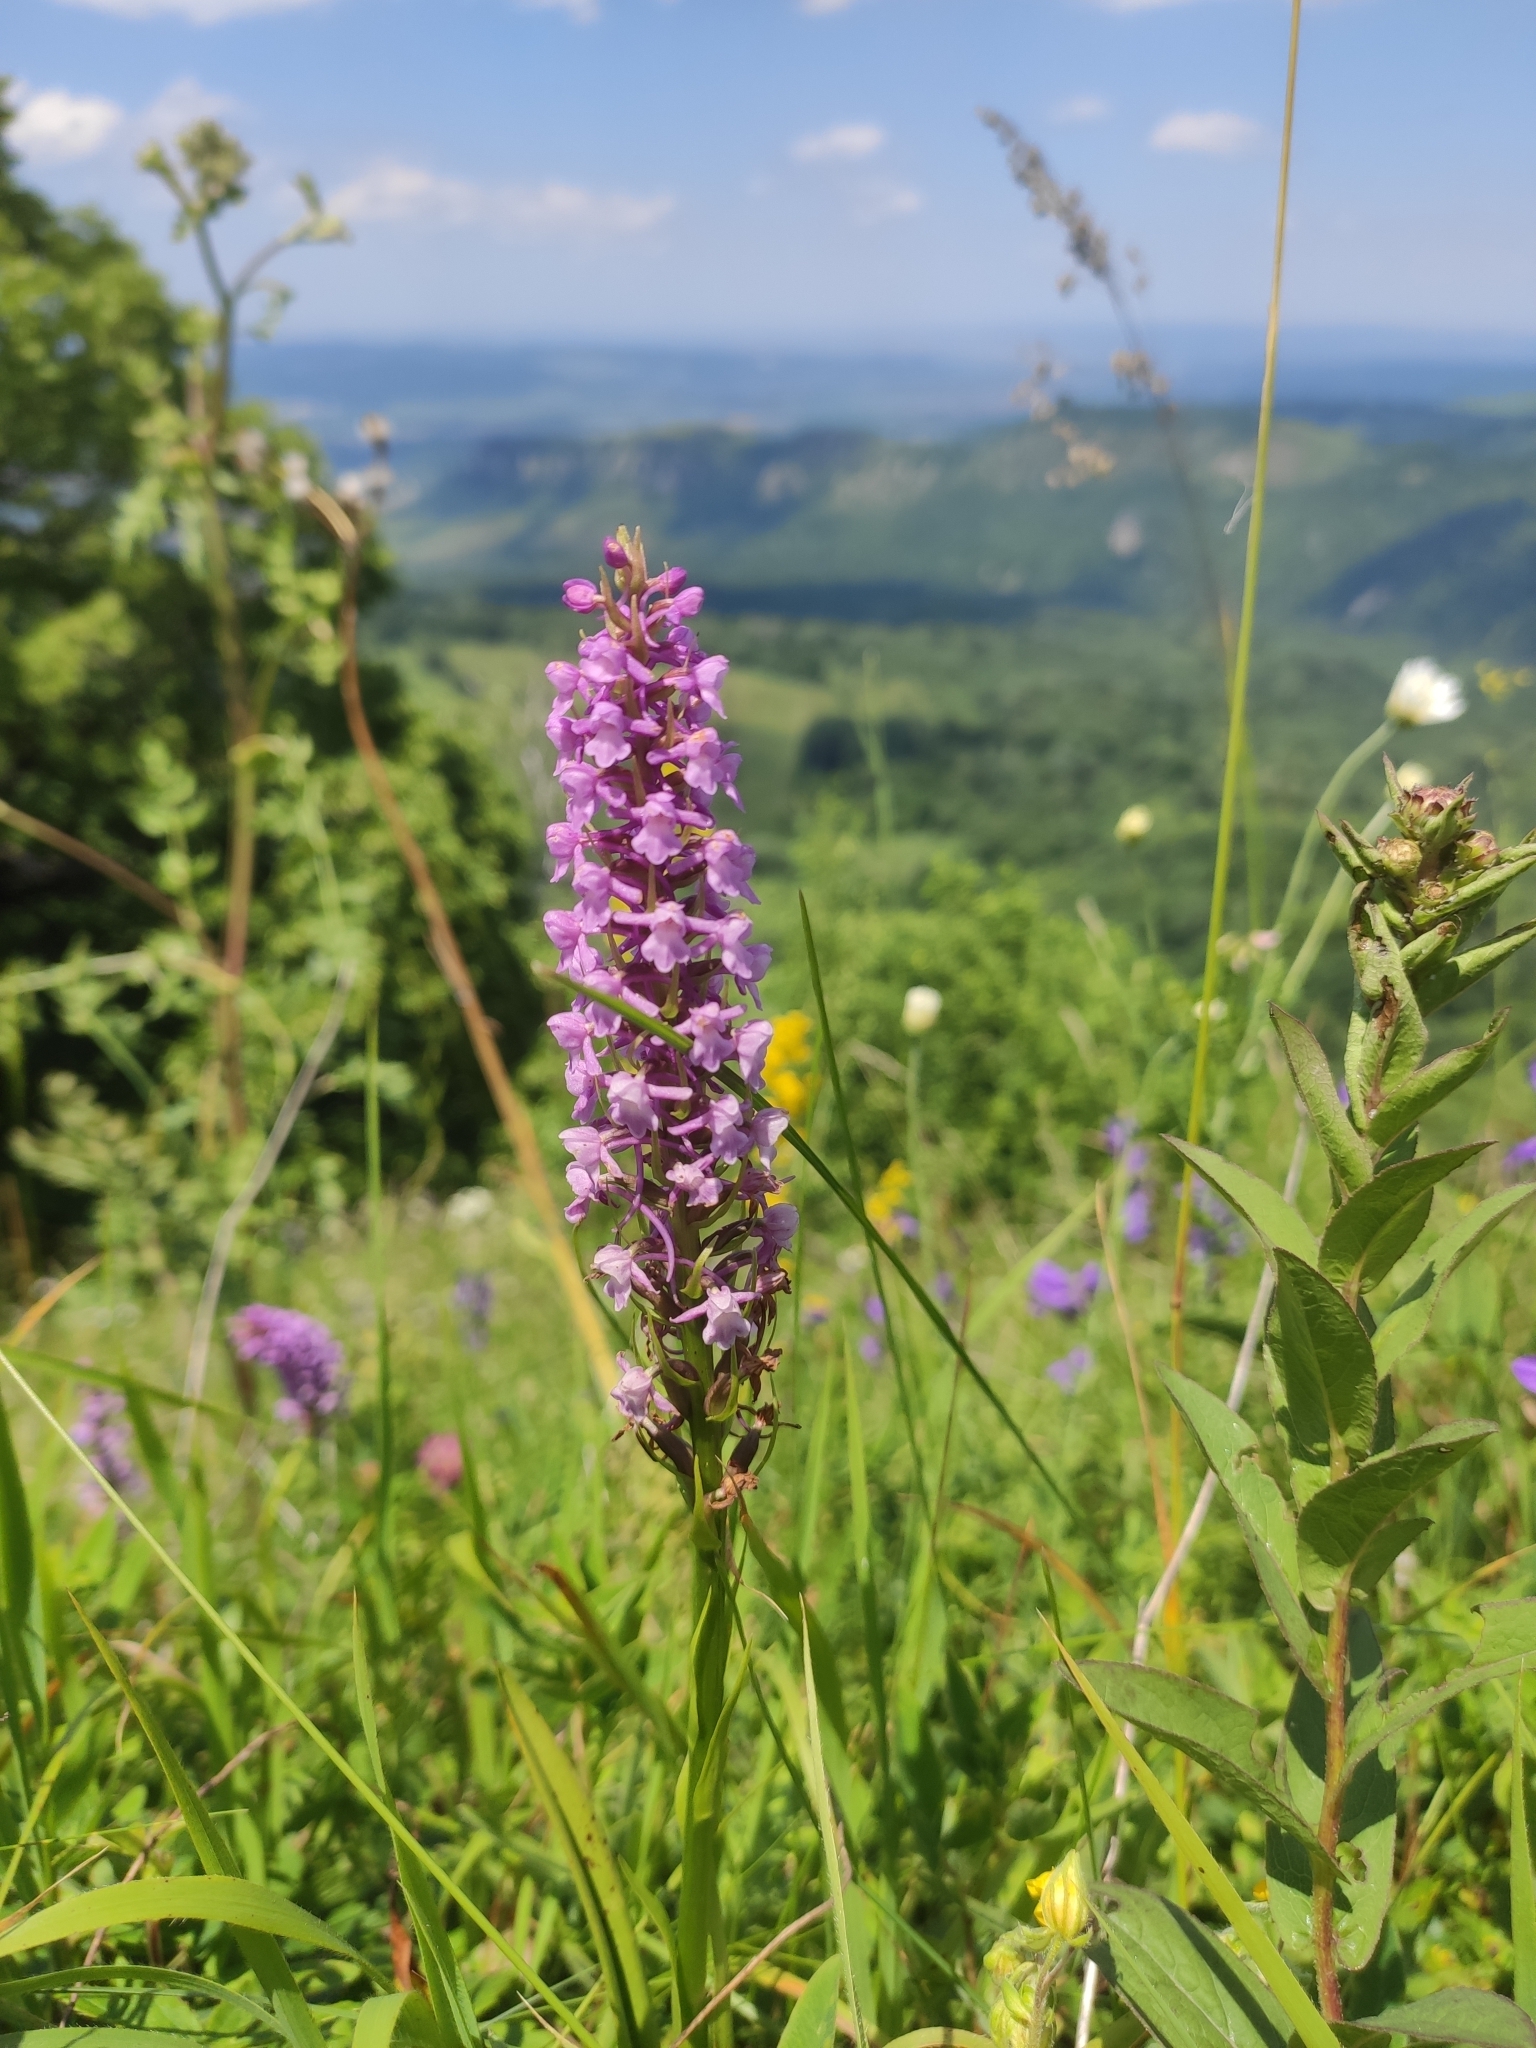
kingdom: Plantae
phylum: Tracheophyta
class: Liliopsida
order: Asparagales
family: Orchidaceae
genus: Gymnadenia
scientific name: Gymnadenia conopsea
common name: Fragrant orchid
